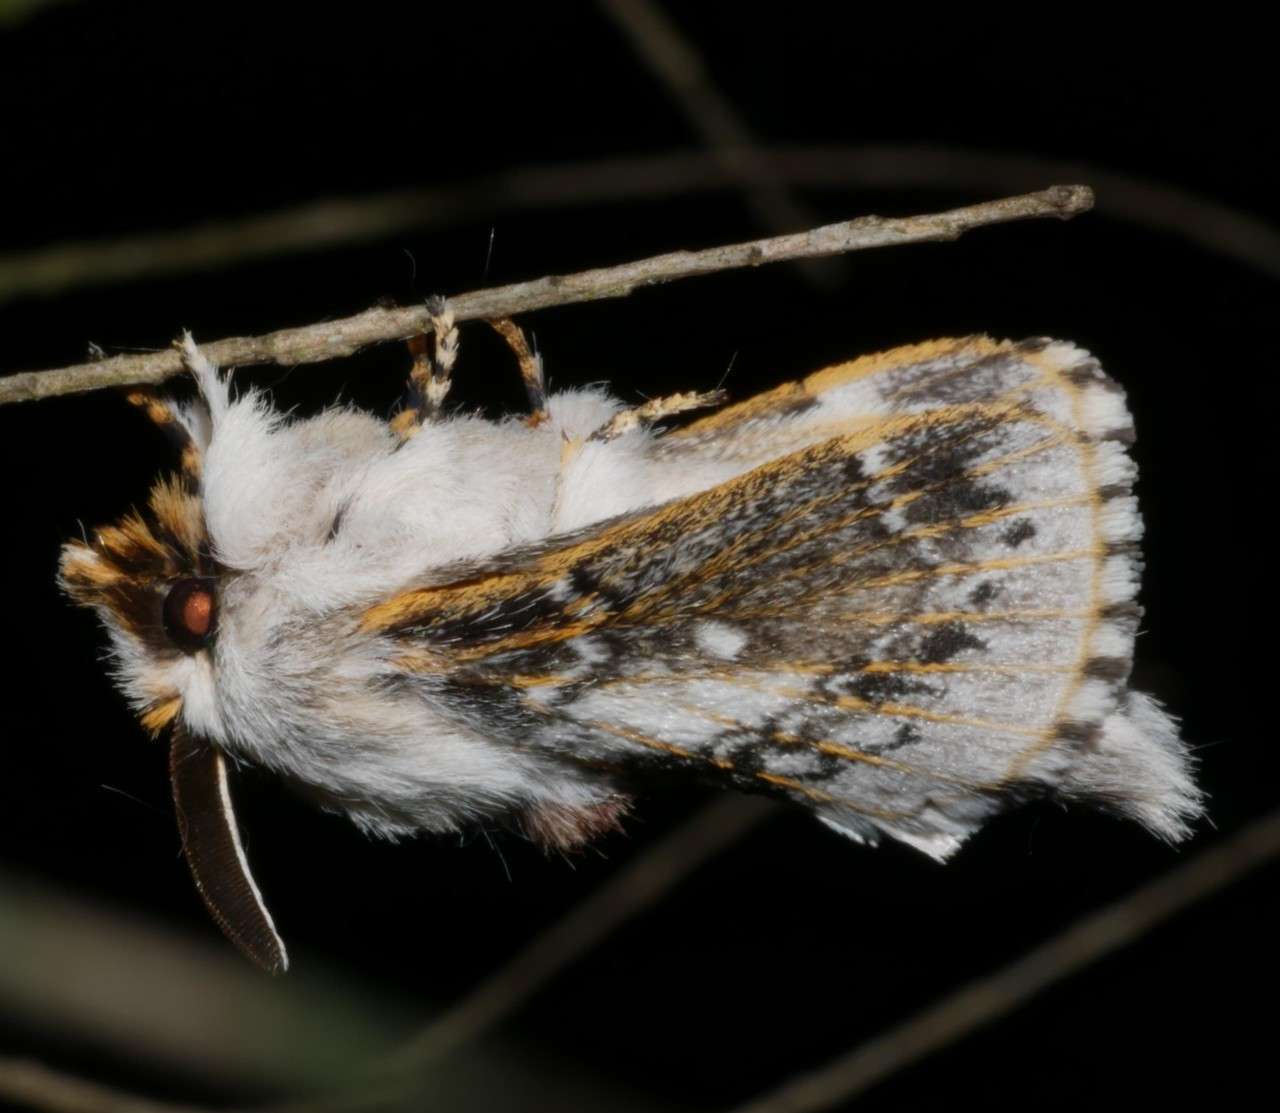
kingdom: Animalia
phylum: Arthropoda
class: Insecta
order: Lepidoptera
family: Lasiocampidae
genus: Porela
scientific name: Porela delineata
